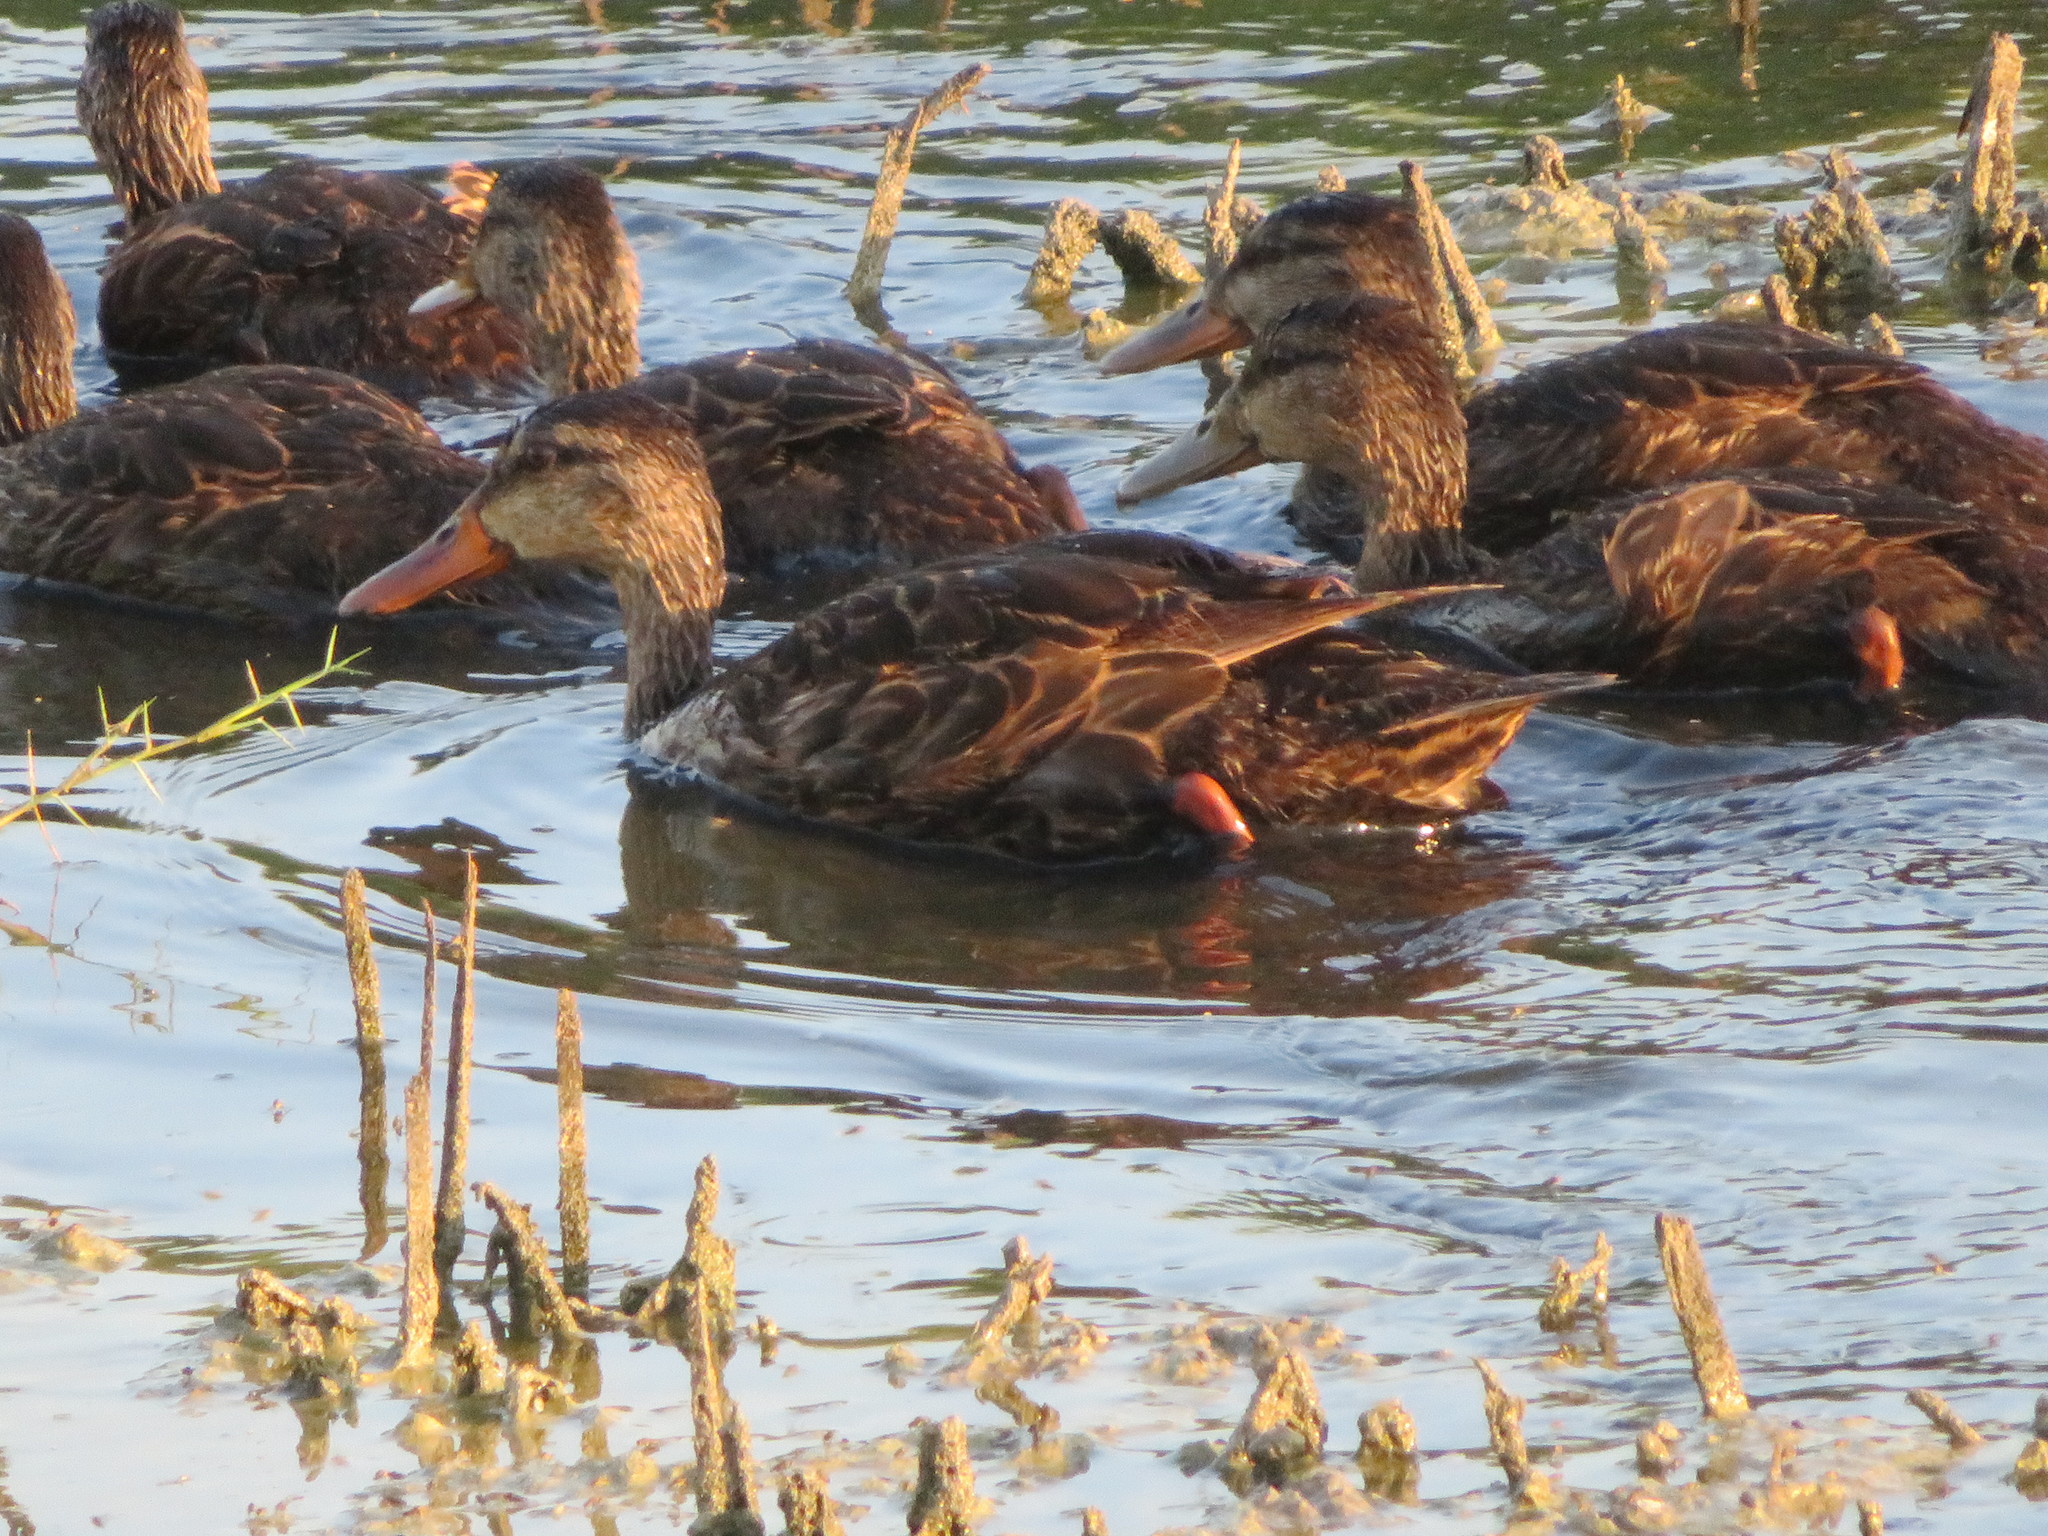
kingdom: Animalia
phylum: Chordata
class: Aves
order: Anseriformes
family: Anatidae
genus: Anas
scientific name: Anas fulvigula
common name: Mottled duck
